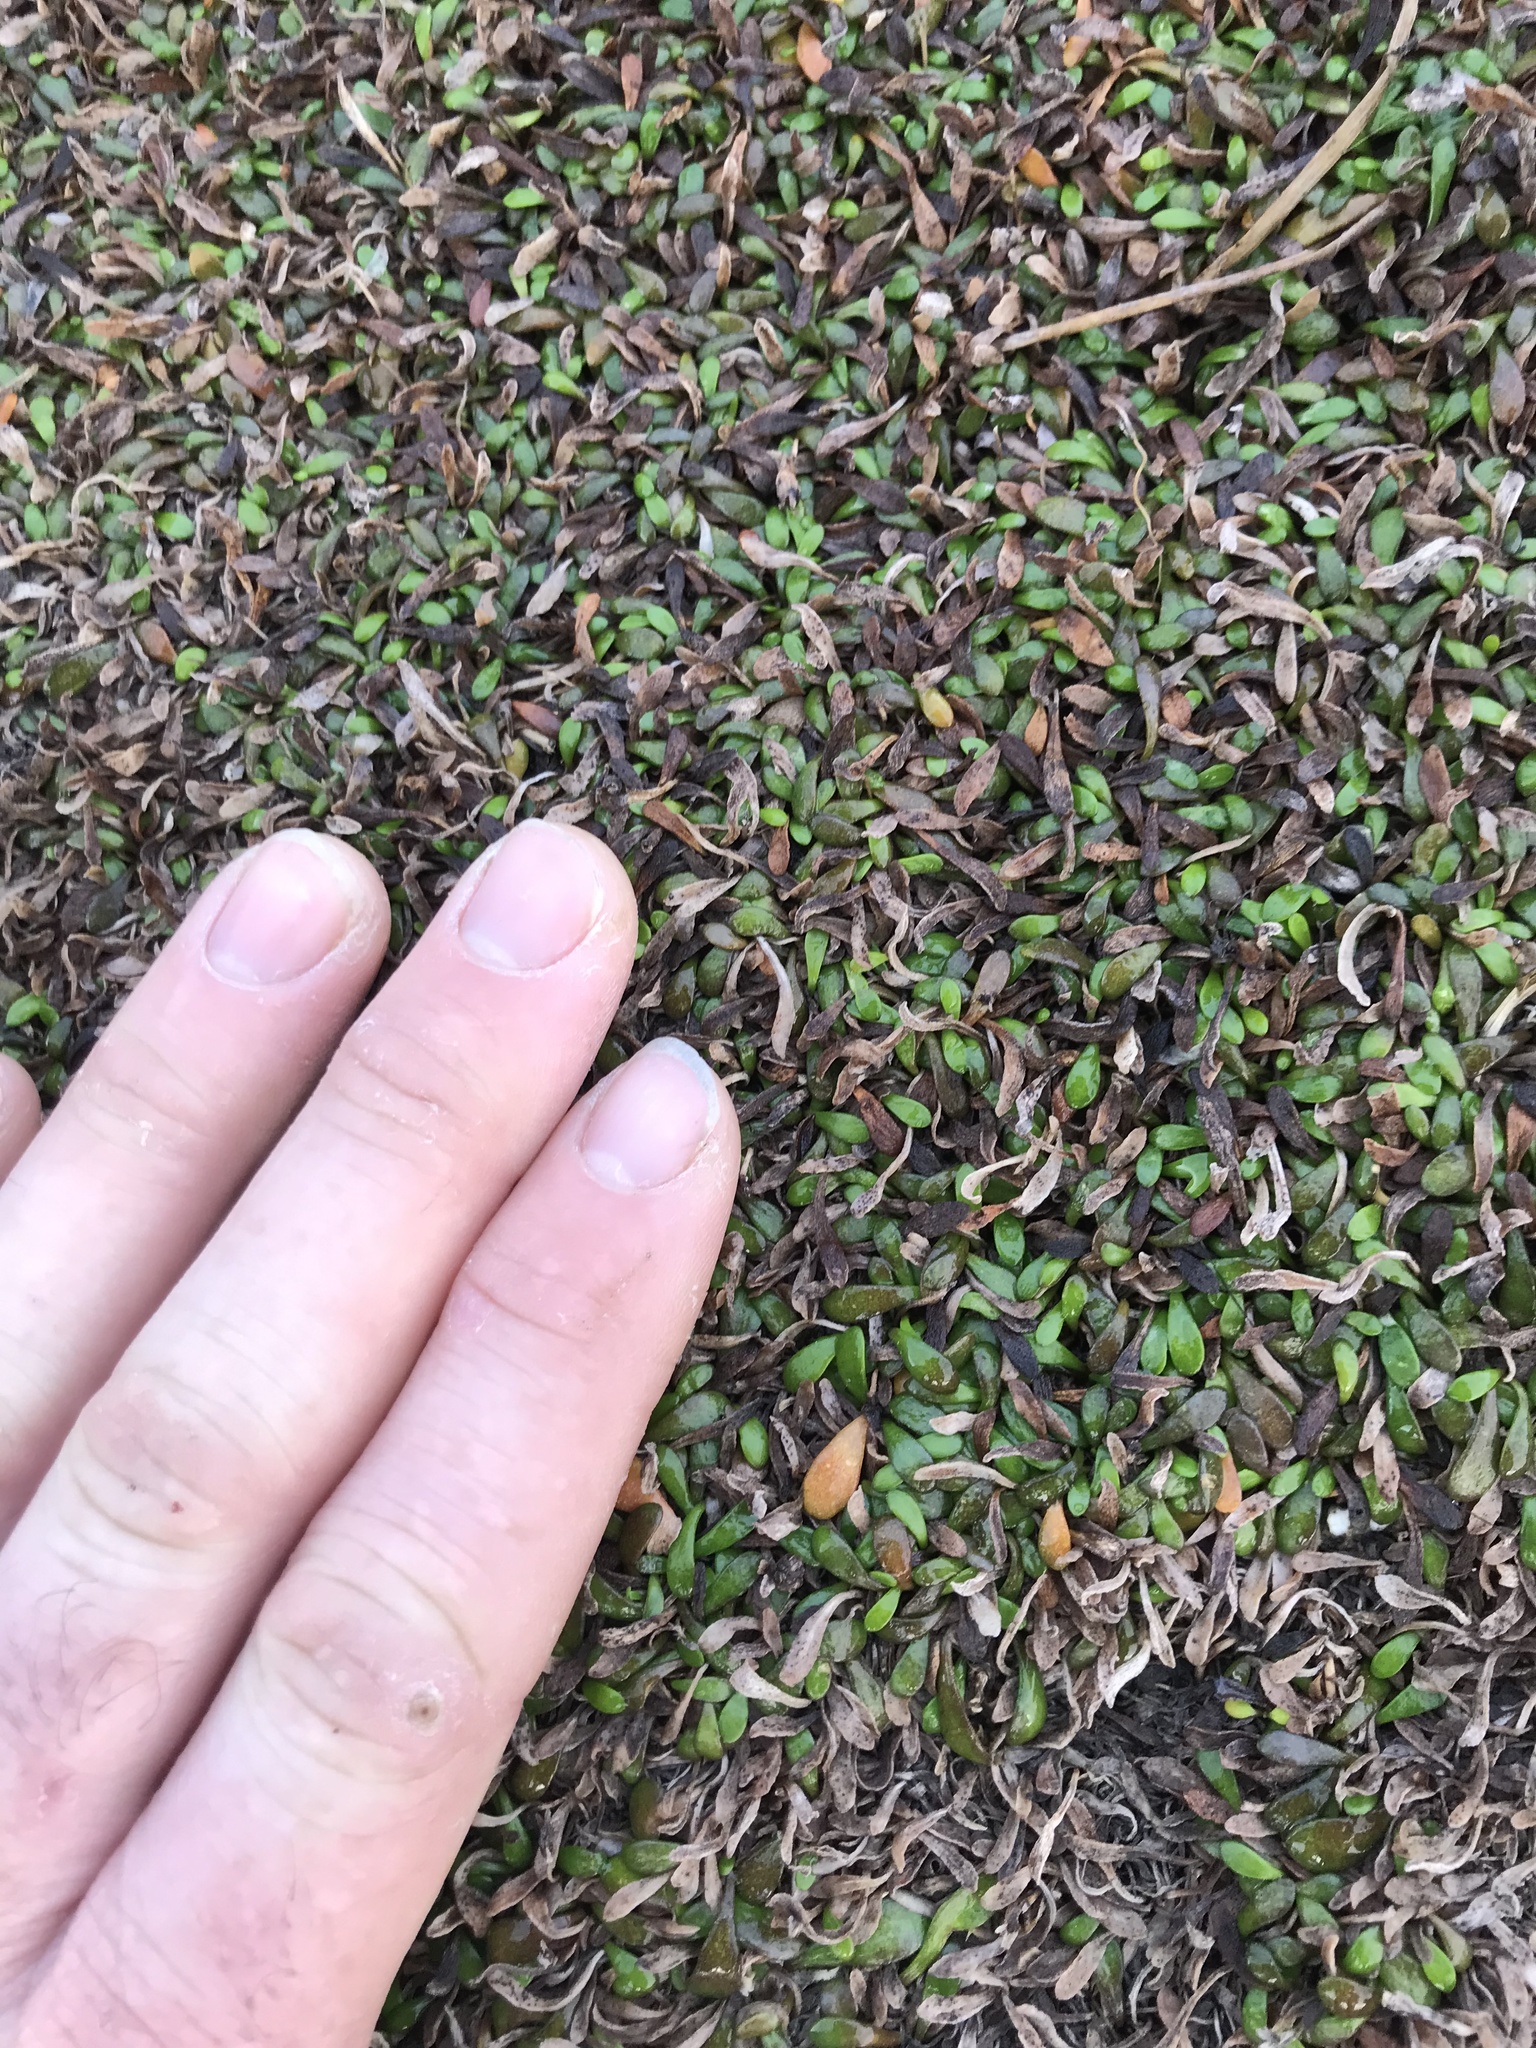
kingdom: Plantae
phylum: Tracheophyta
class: Magnoliopsida
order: Asterales
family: Goodeniaceae
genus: Goodenia
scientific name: Goodenia radicans
